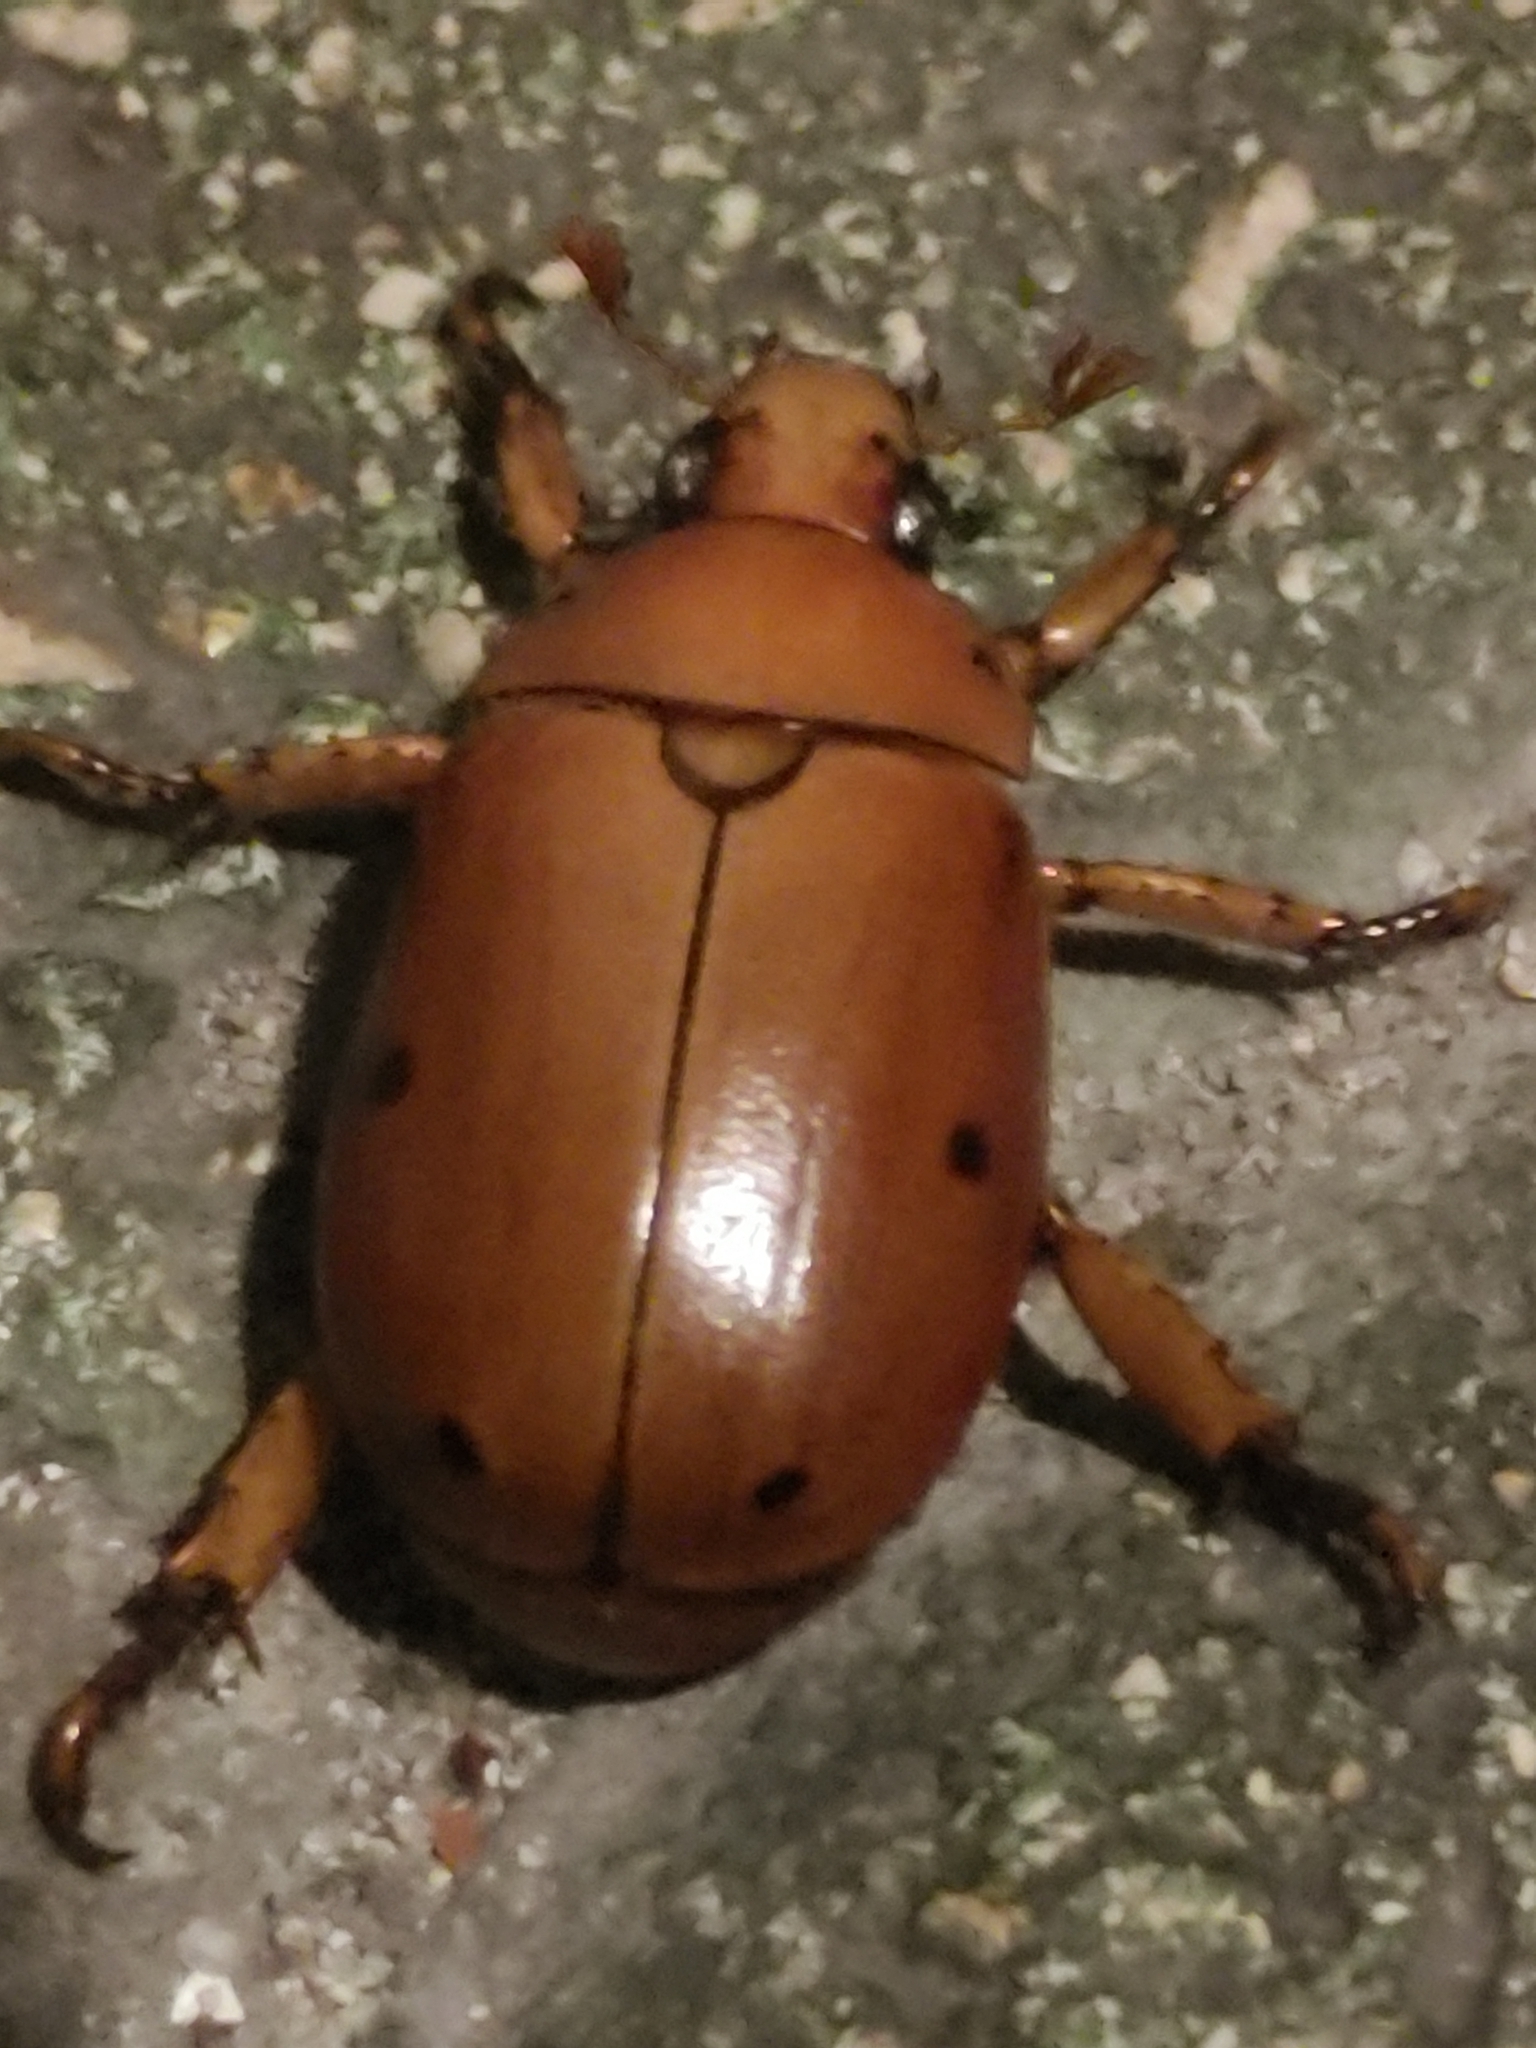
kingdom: Animalia
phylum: Arthropoda
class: Insecta
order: Coleoptera
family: Scarabaeidae
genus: Pelidnota
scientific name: Pelidnota punctata
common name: Grapevine beetle
